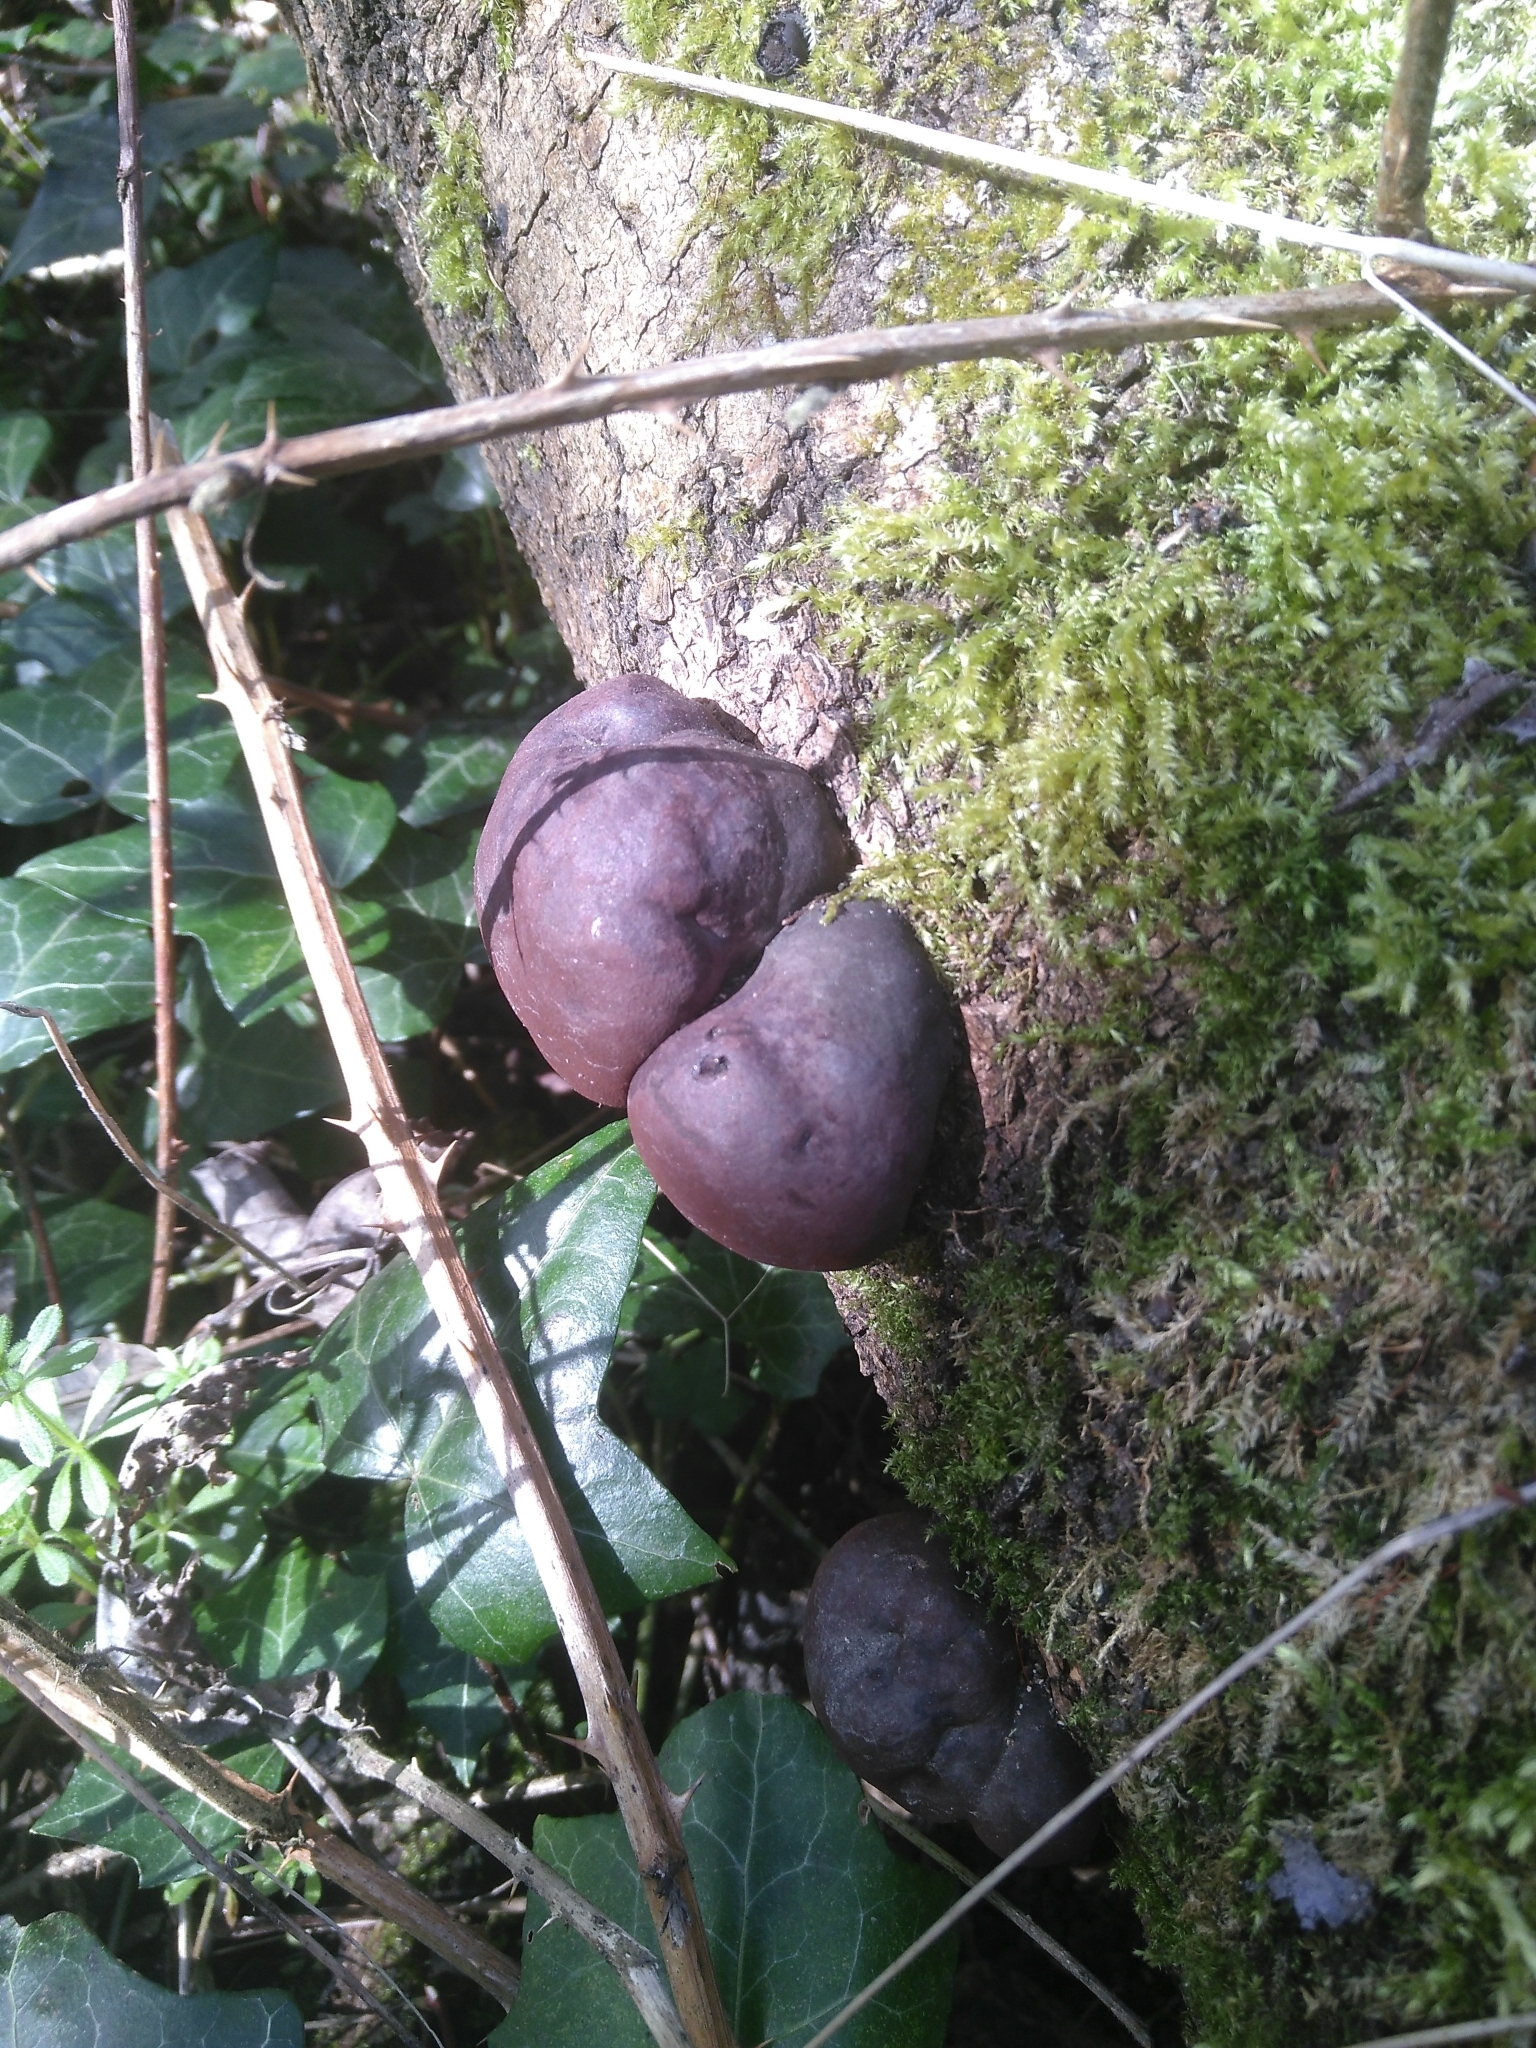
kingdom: Fungi
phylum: Ascomycota
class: Sordariomycetes
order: Xylariales
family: Hypoxylaceae
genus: Daldinia
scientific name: Daldinia concentrica
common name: Cramp balls
